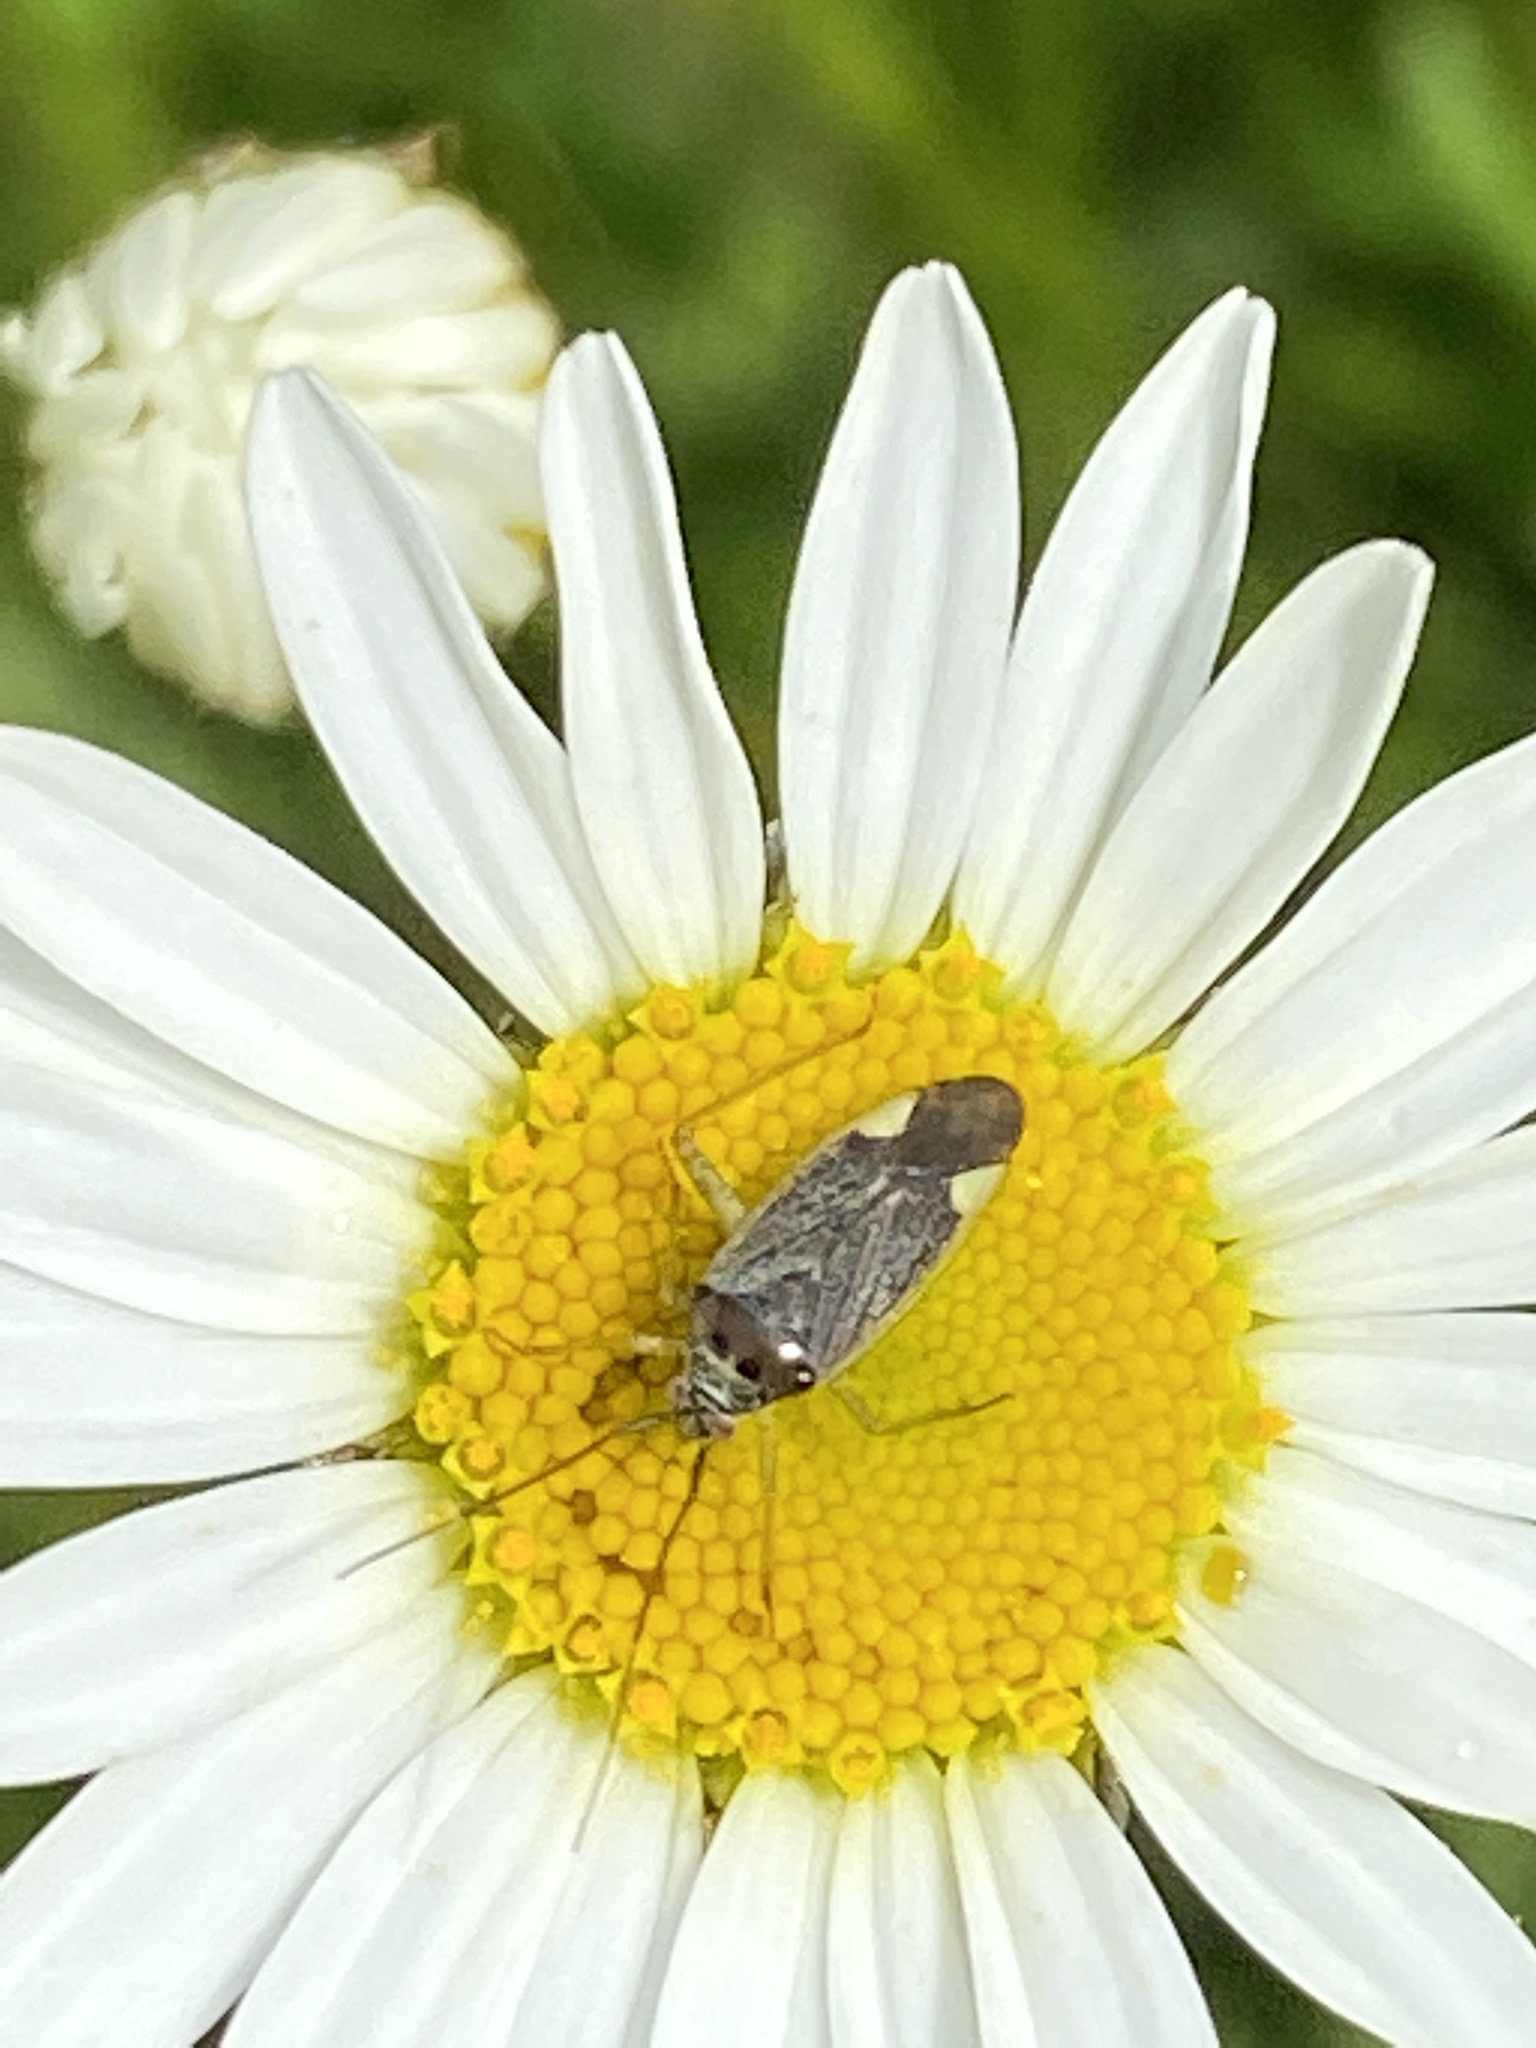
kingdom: Animalia
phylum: Arthropoda
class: Insecta
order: Hemiptera
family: Miridae
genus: Closterotomus
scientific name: Closterotomus trivialis
